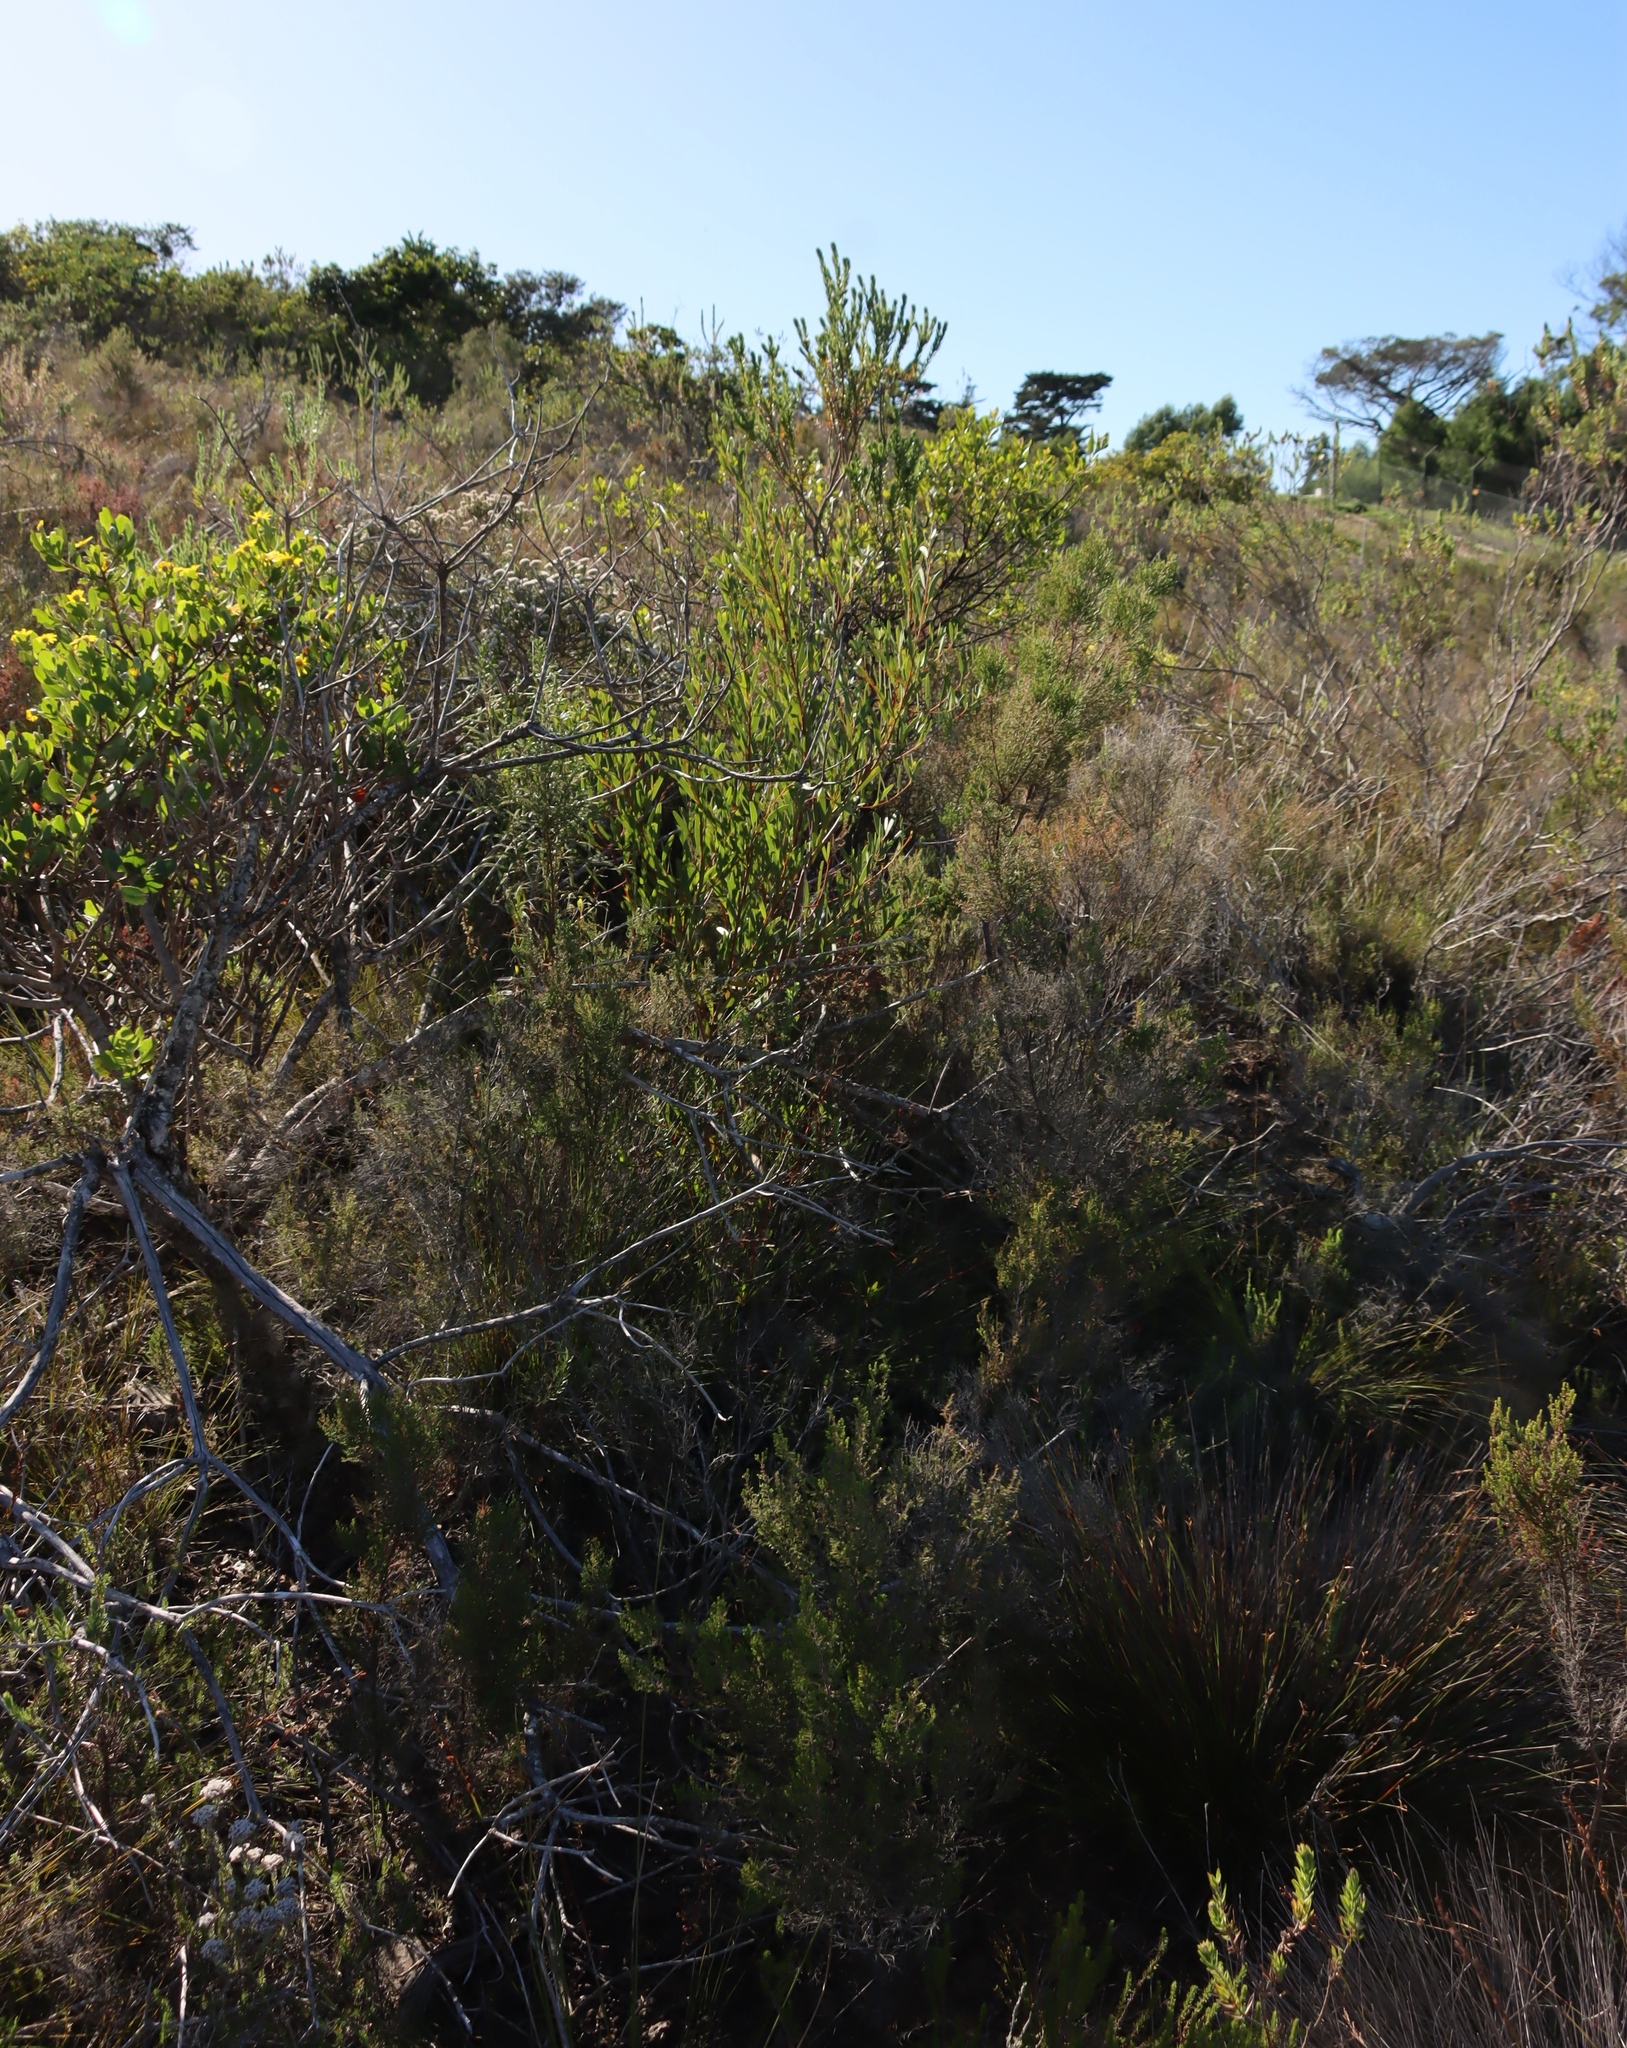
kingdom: Plantae
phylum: Tracheophyta
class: Magnoliopsida
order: Fabales
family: Fabaceae
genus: Acacia
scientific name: Acacia cyclops
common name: Coastal wattle
